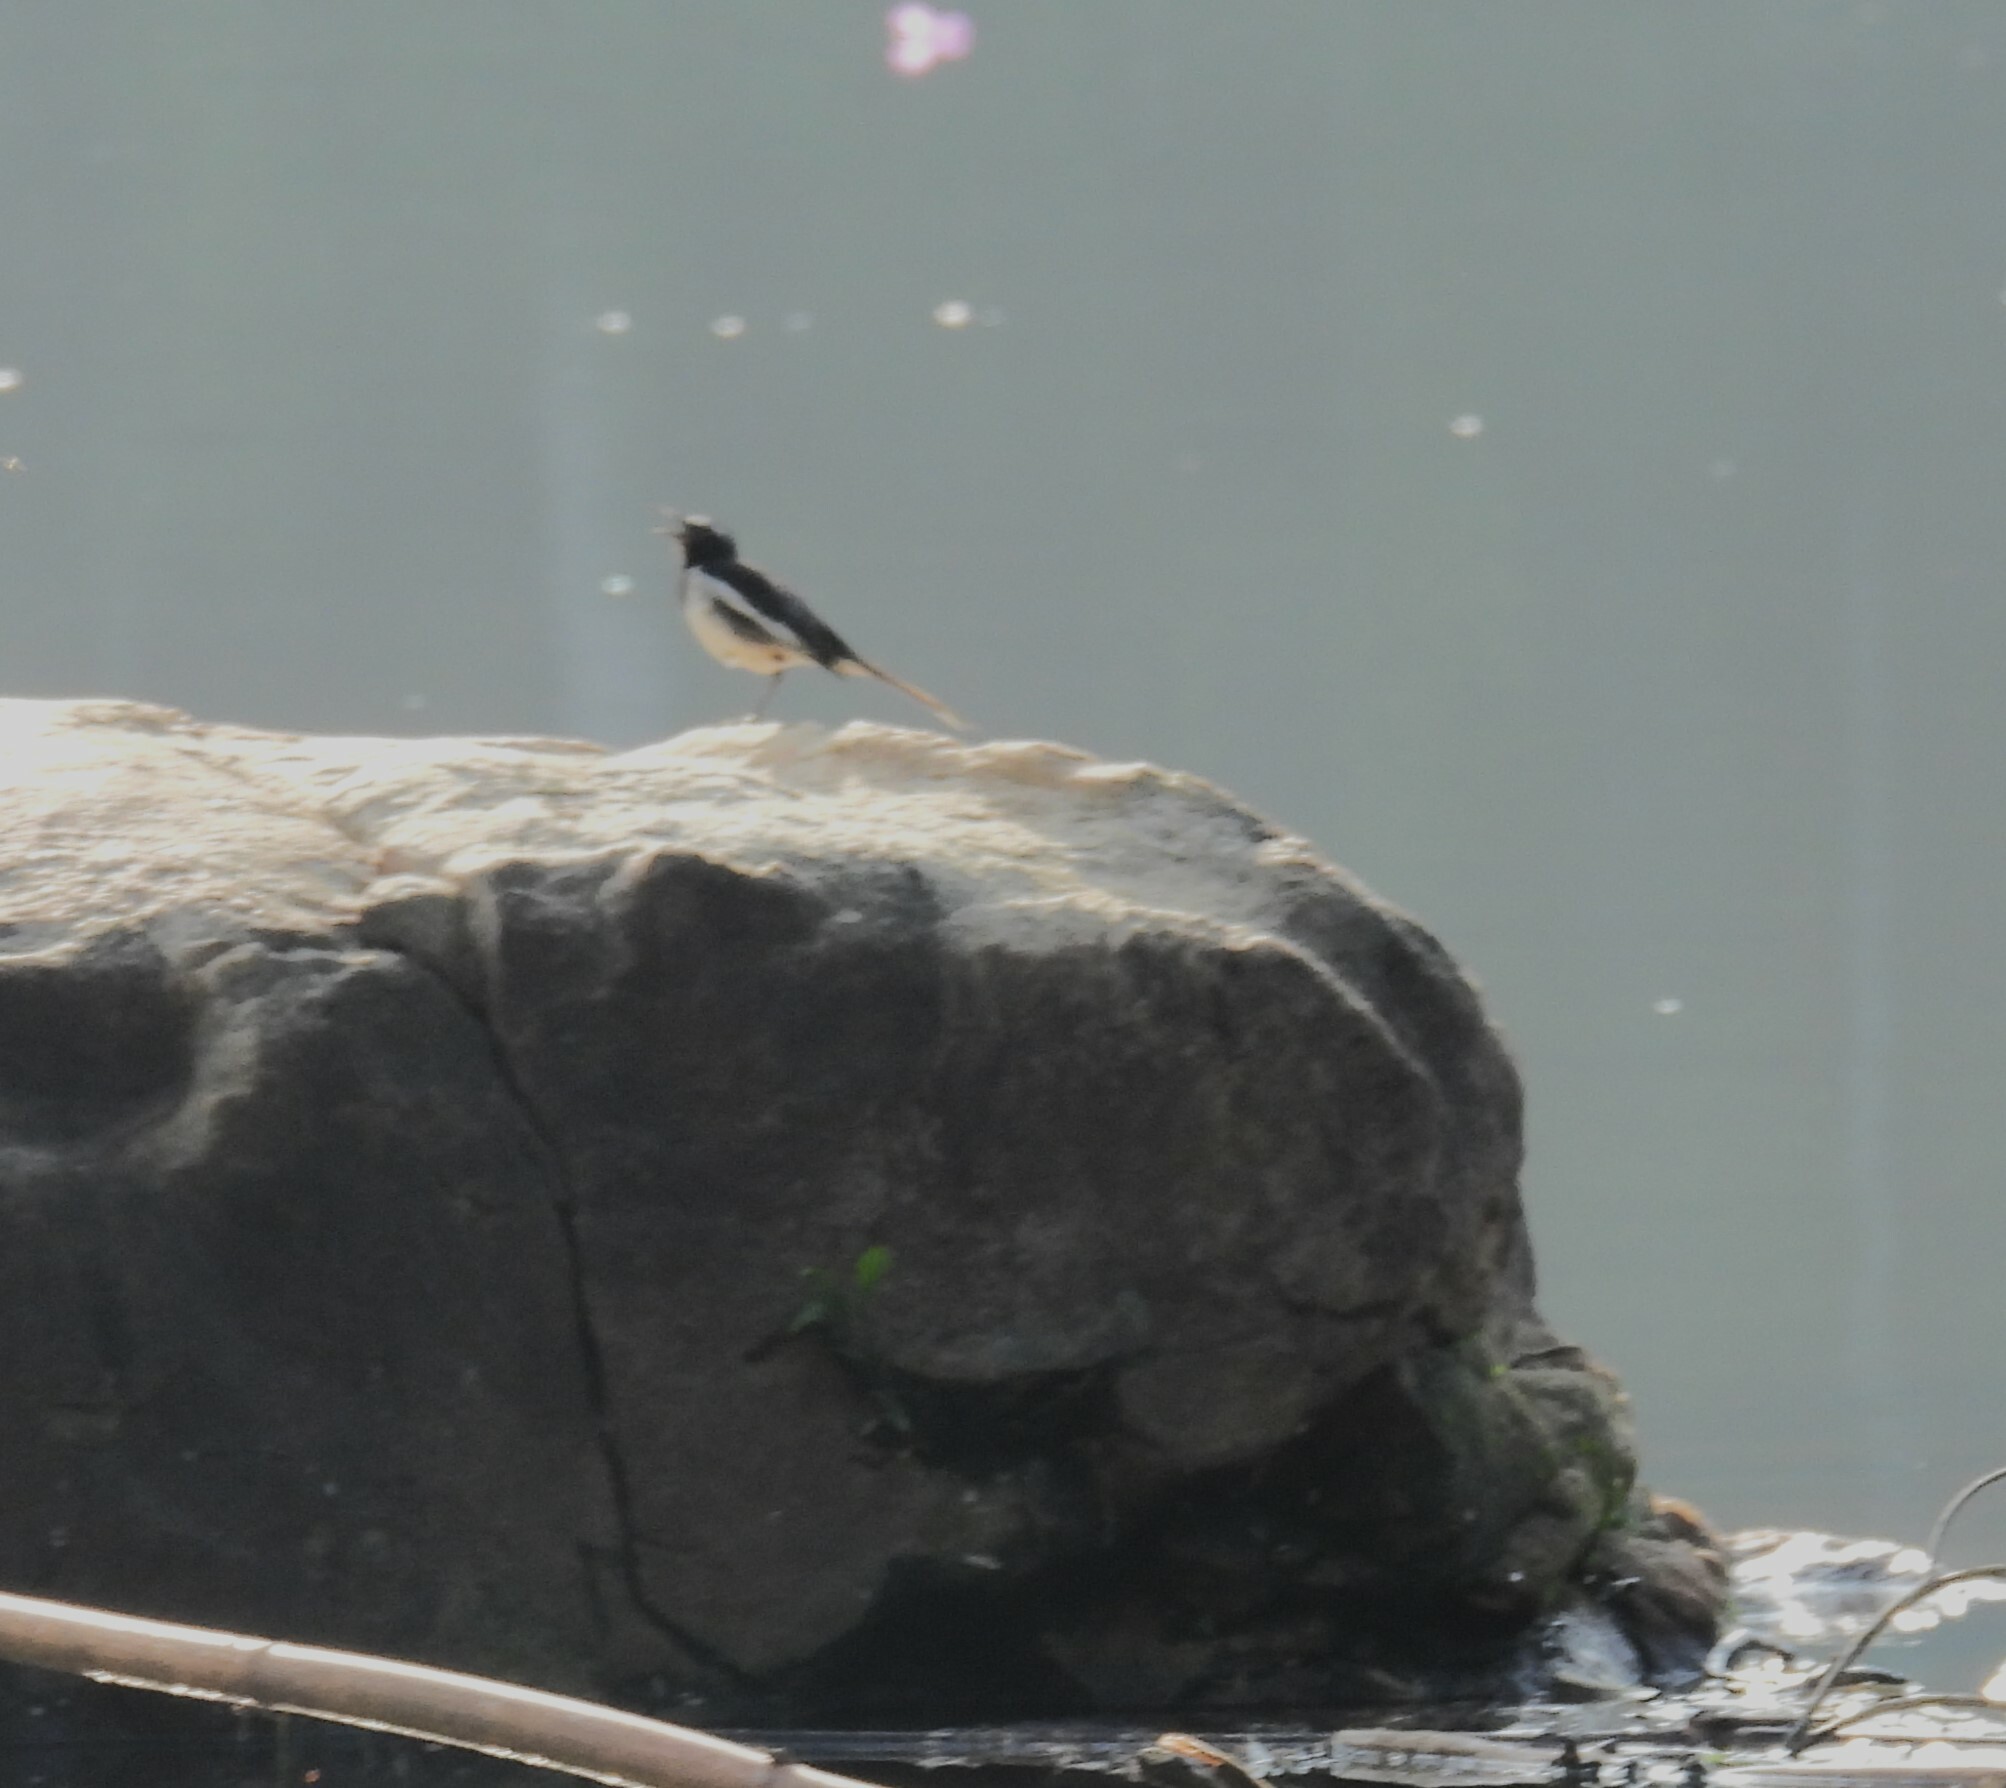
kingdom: Animalia
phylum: Chordata
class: Aves
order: Passeriformes
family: Motacillidae
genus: Motacilla
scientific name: Motacilla maderaspatensis
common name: White-browed wagtail
